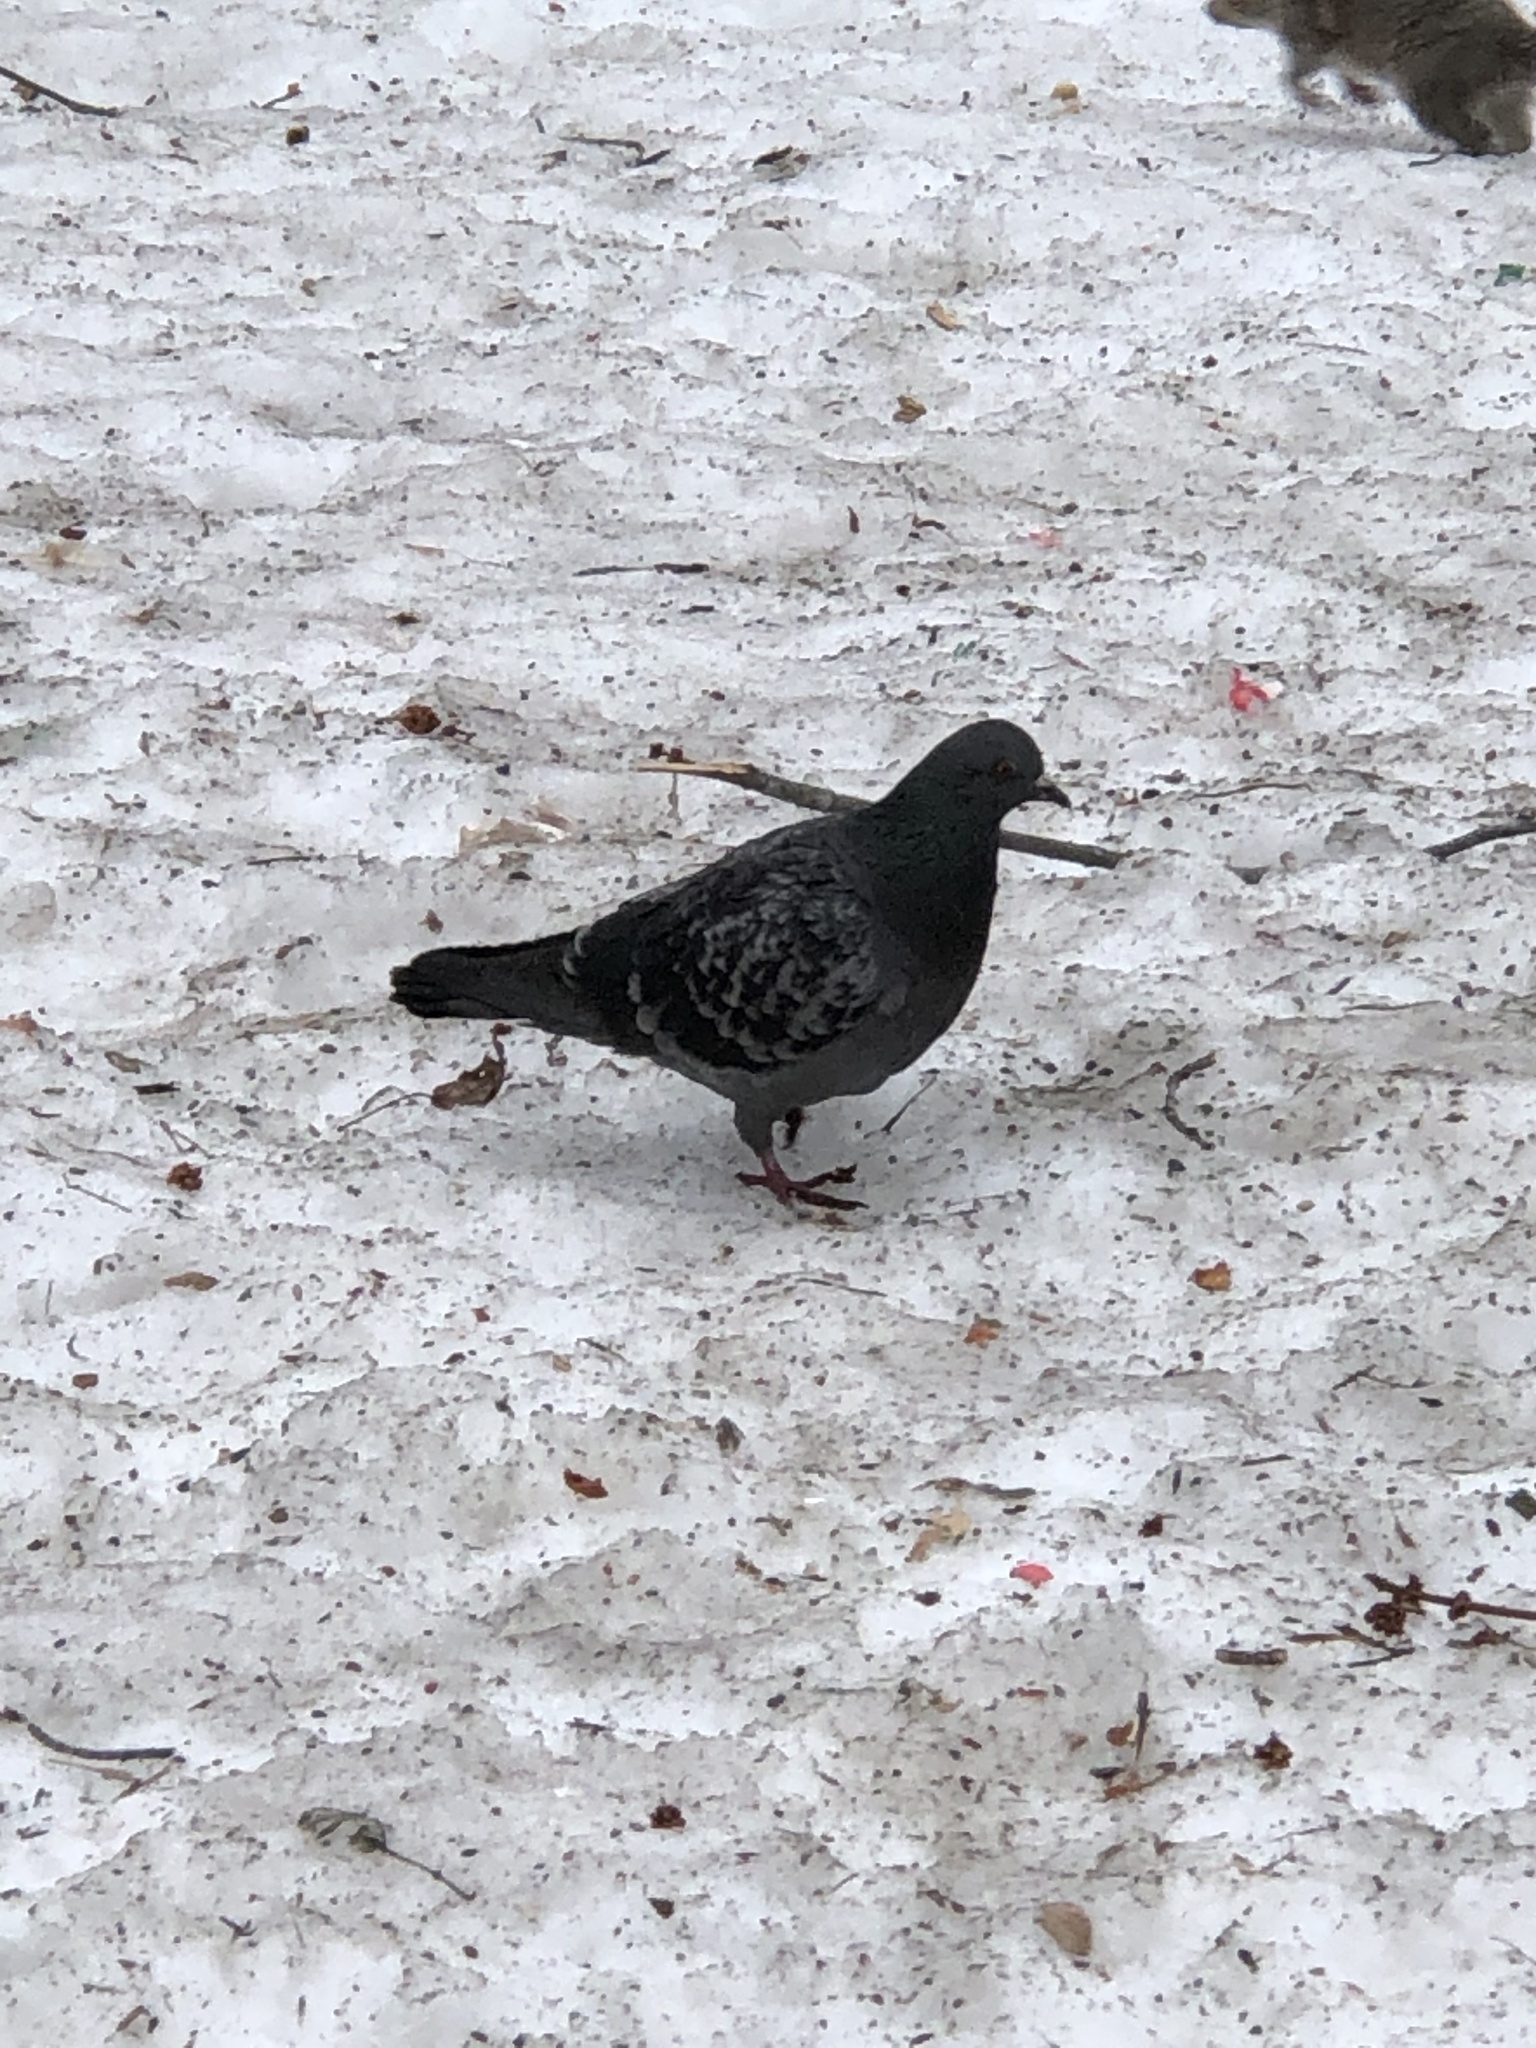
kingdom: Animalia
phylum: Chordata
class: Aves
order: Columbiformes
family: Columbidae
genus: Columba
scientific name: Columba livia
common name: Rock pigeon
